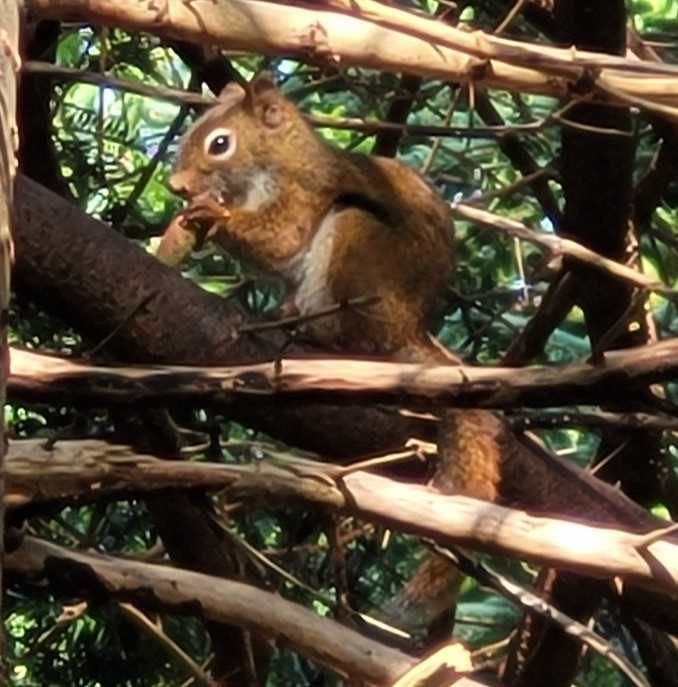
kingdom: Animalia
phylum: Chordata
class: Mammalia
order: Rodentia
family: Sciuridae
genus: Tamiasciurus
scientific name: Tamiasciurus hudsonicus
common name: Red squirrel
